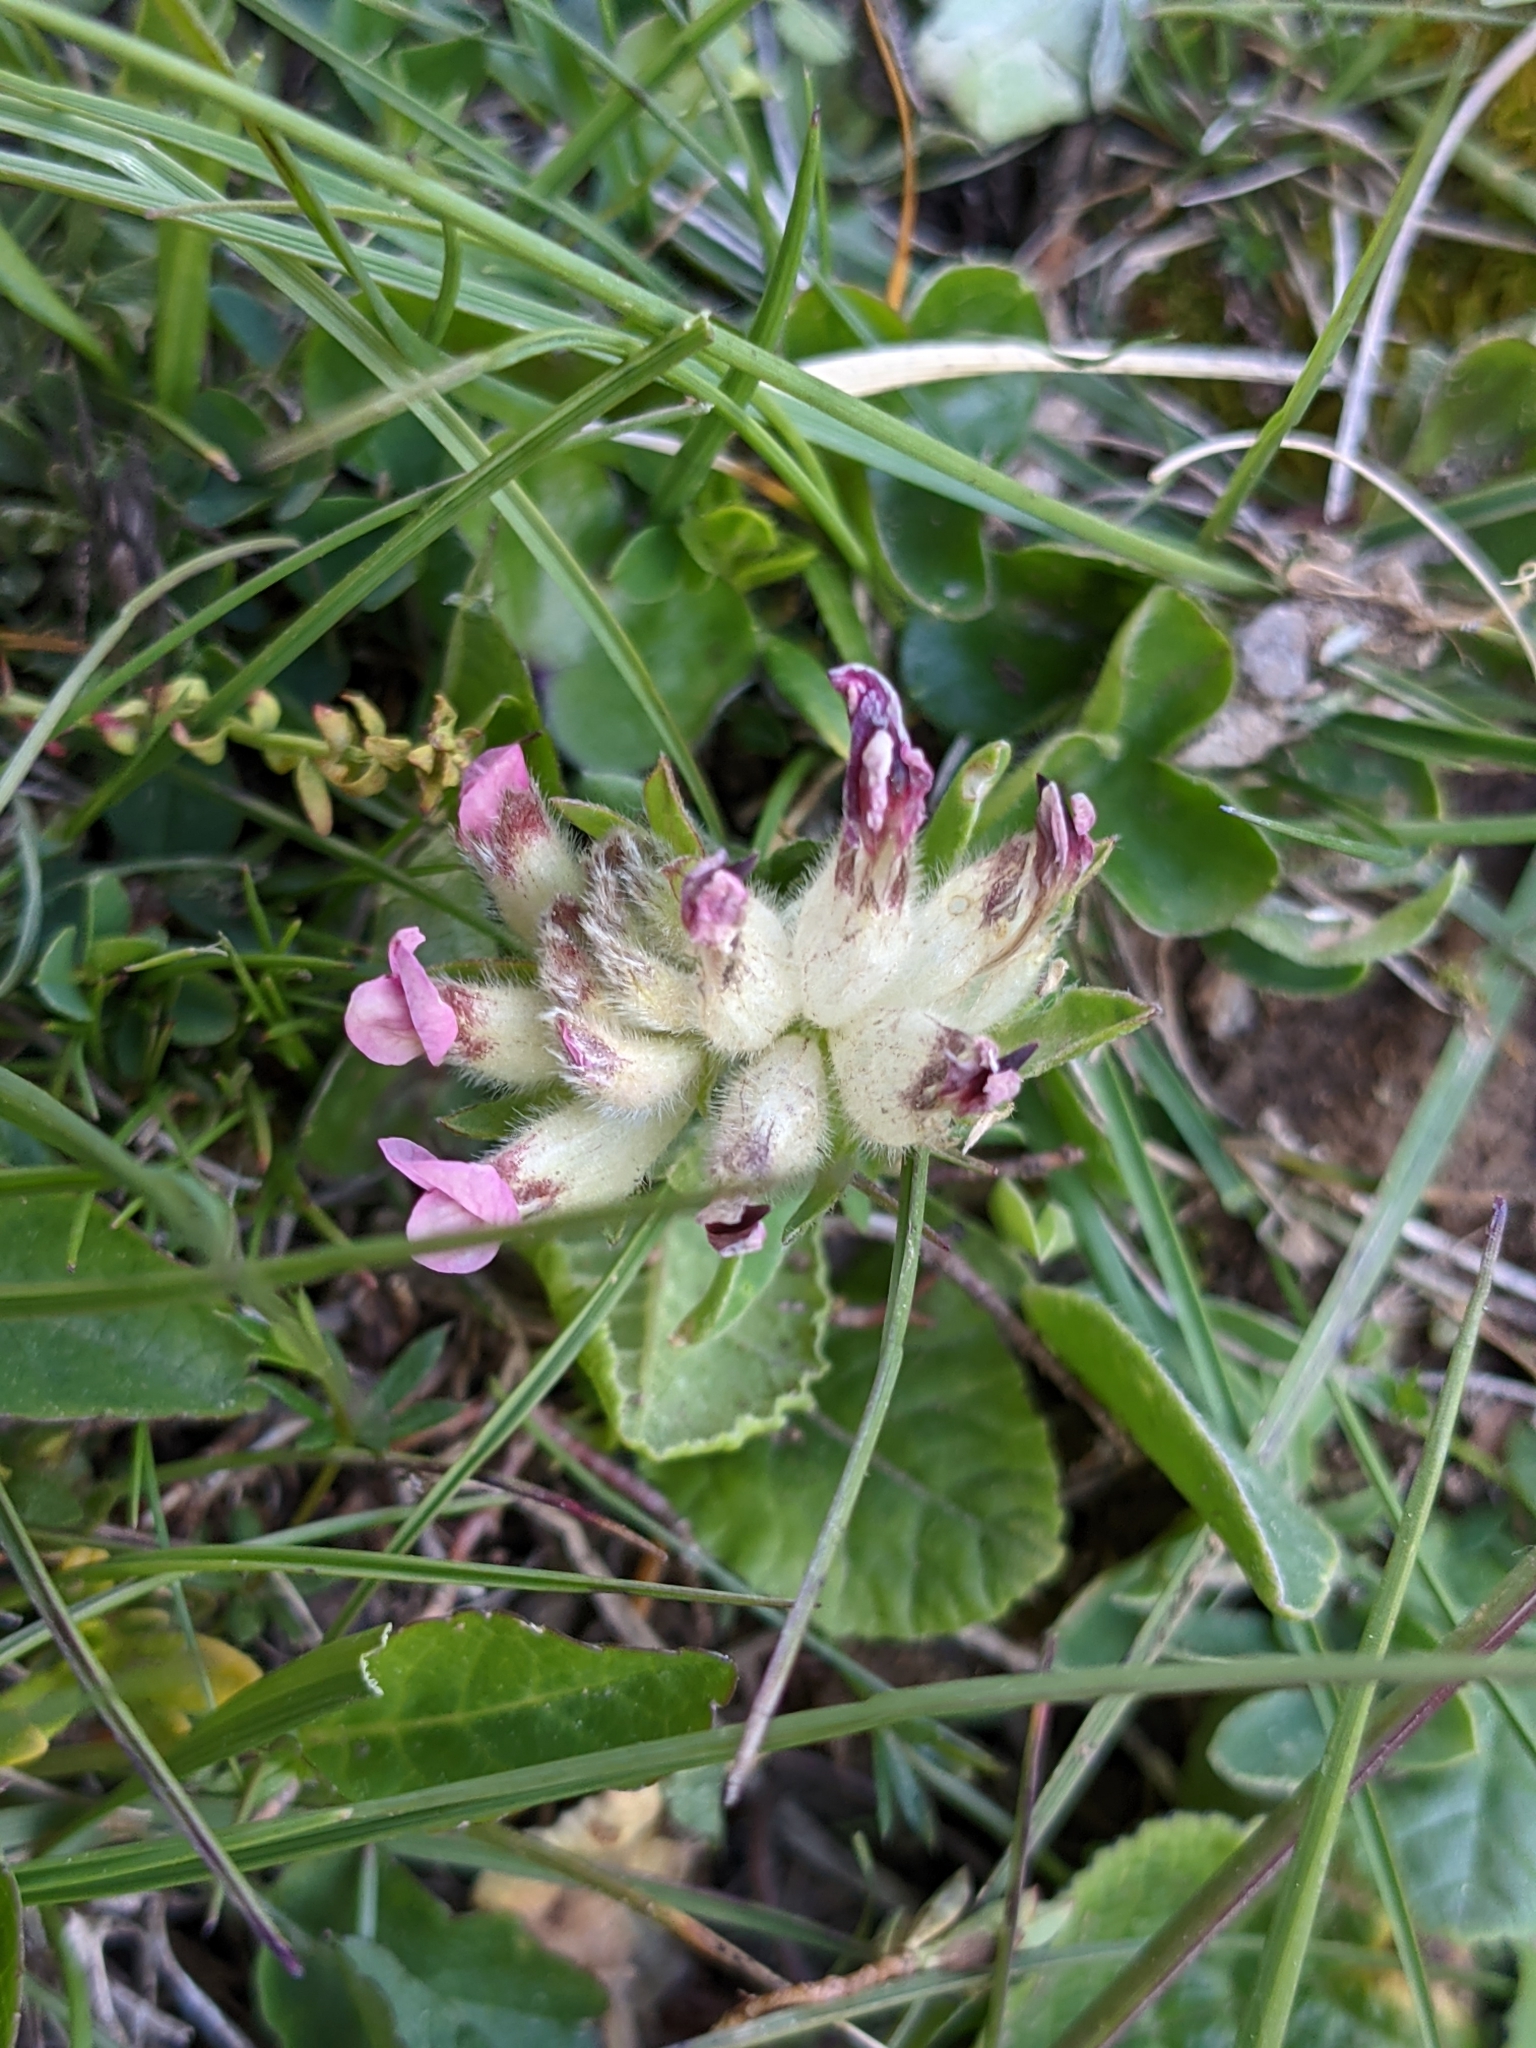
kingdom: Plantae
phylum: Tracheophyta
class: Magnoliopsida
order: Fabales
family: Fabaceae
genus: Anthyllis
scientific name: Anthyllis vulneraria
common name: Kidney vetch
